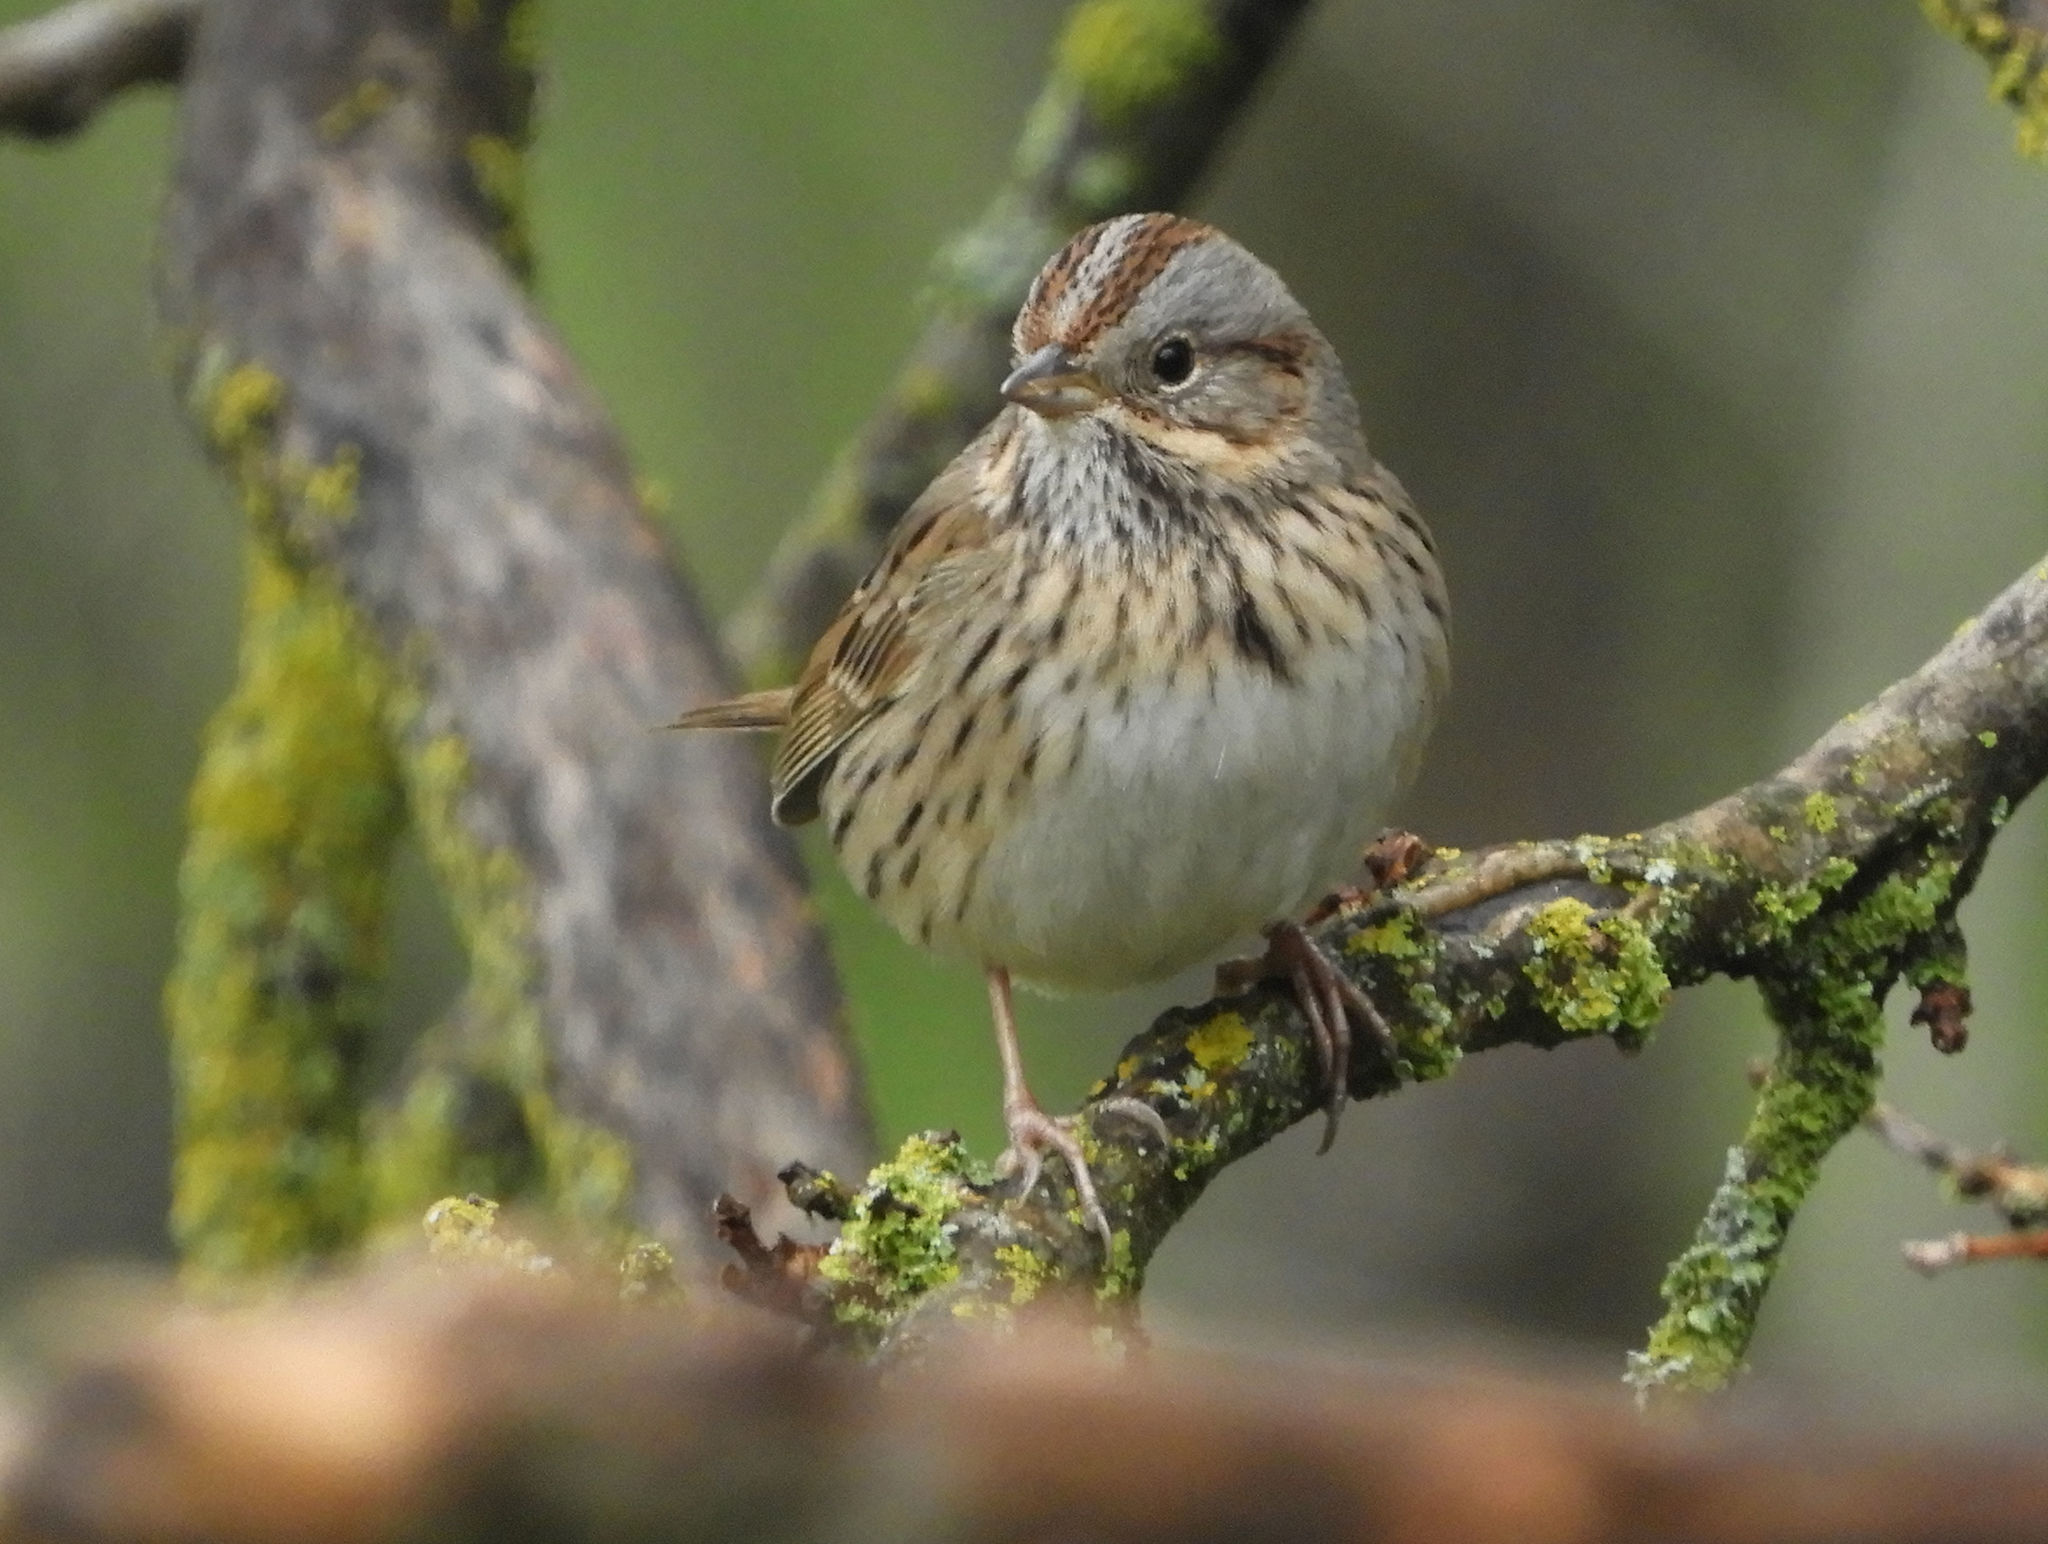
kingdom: Animalia
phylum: Chordata
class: Aves
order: Passeriformes
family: Passerellidae
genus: Melospiza
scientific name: Melospiza lincolnii
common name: Lincoln's sparrow
